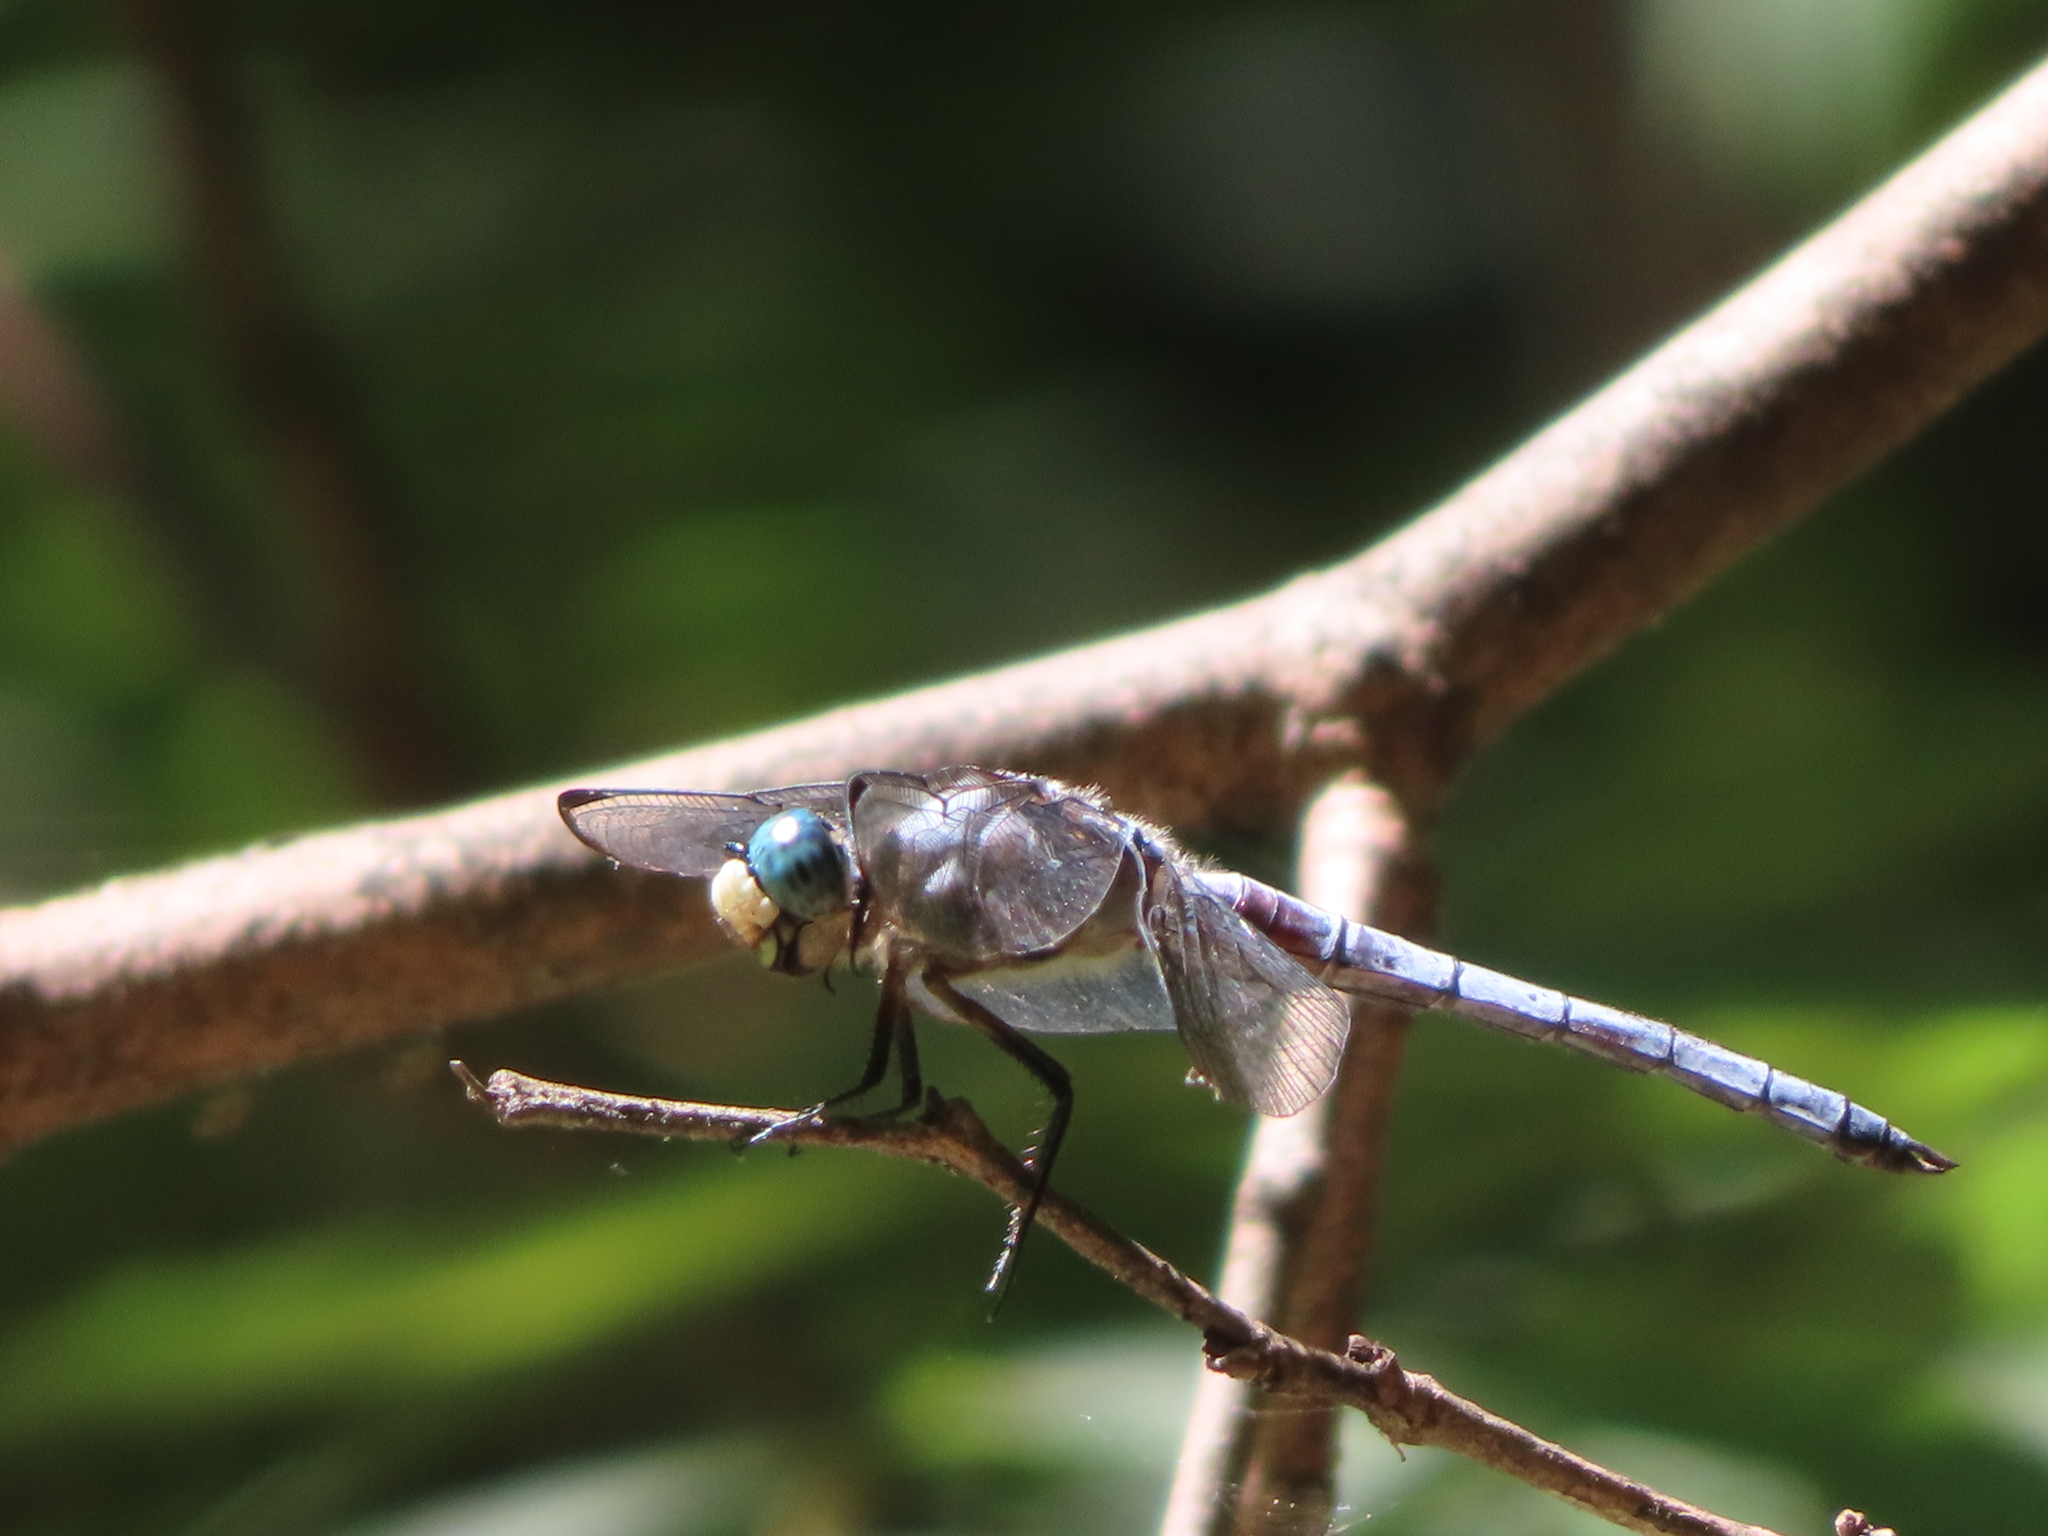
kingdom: Animalia
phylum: Arthropoda
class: Insecta
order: Odonata
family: Libellulidae
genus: Libellula
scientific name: Libellula vibrans
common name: Great blue skimmer
